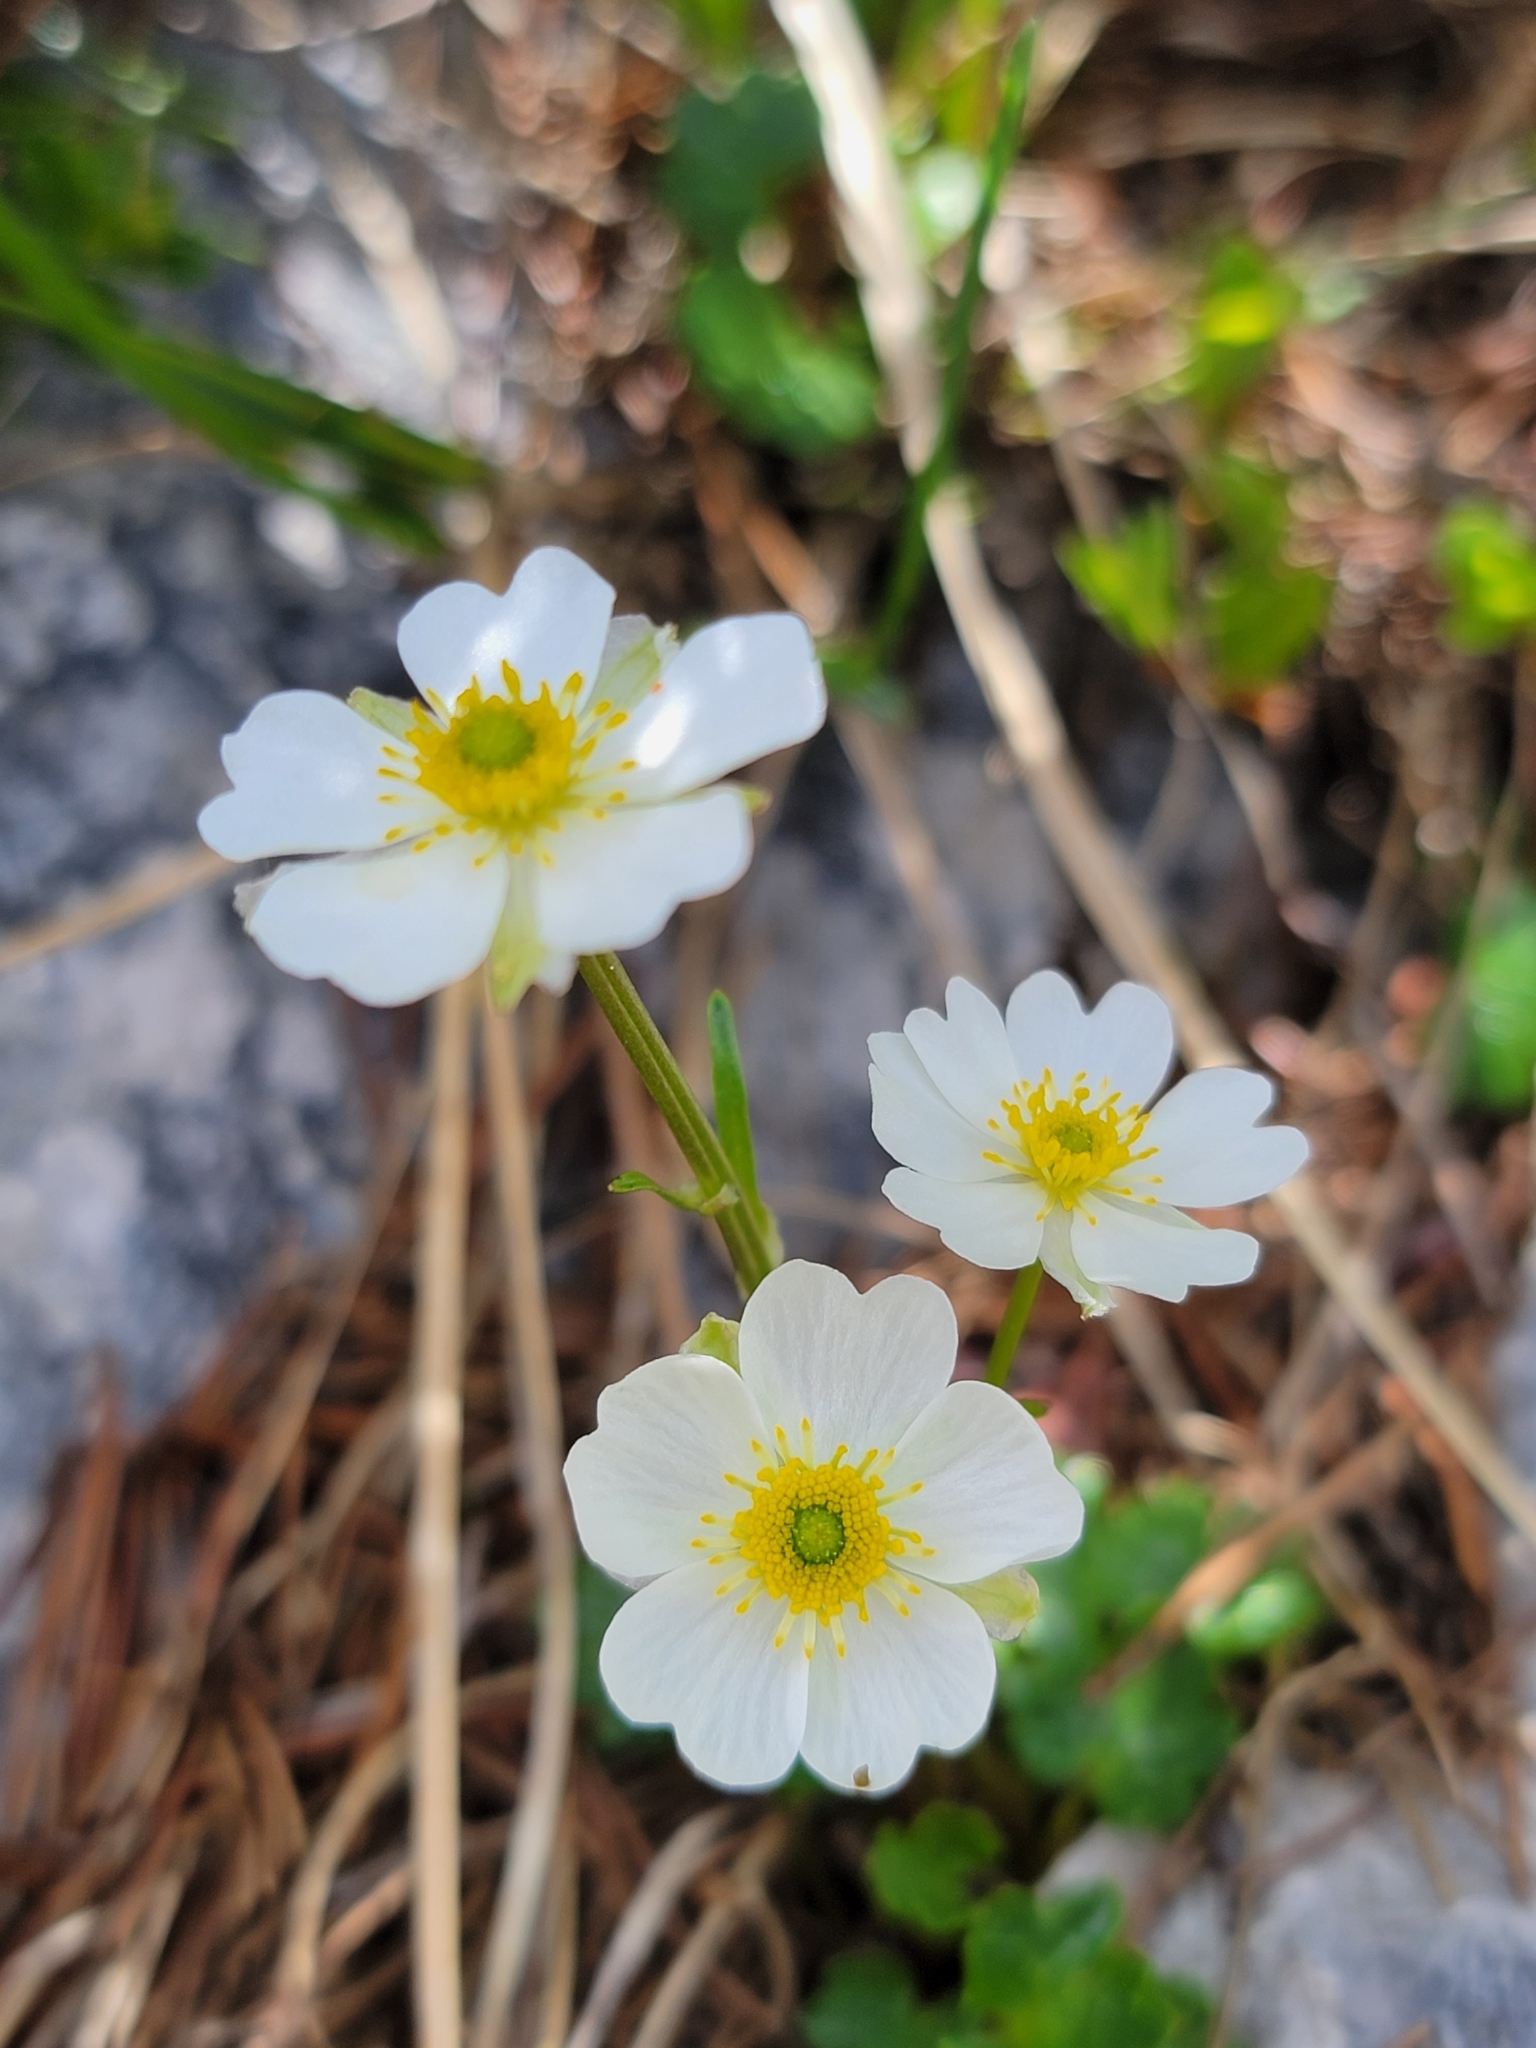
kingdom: Plantae
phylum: Tracheophyta
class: Magnoliopsida
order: Ranunculales
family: Ranunculaceae
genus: Ranunculus
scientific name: Ranunculus alpestris
